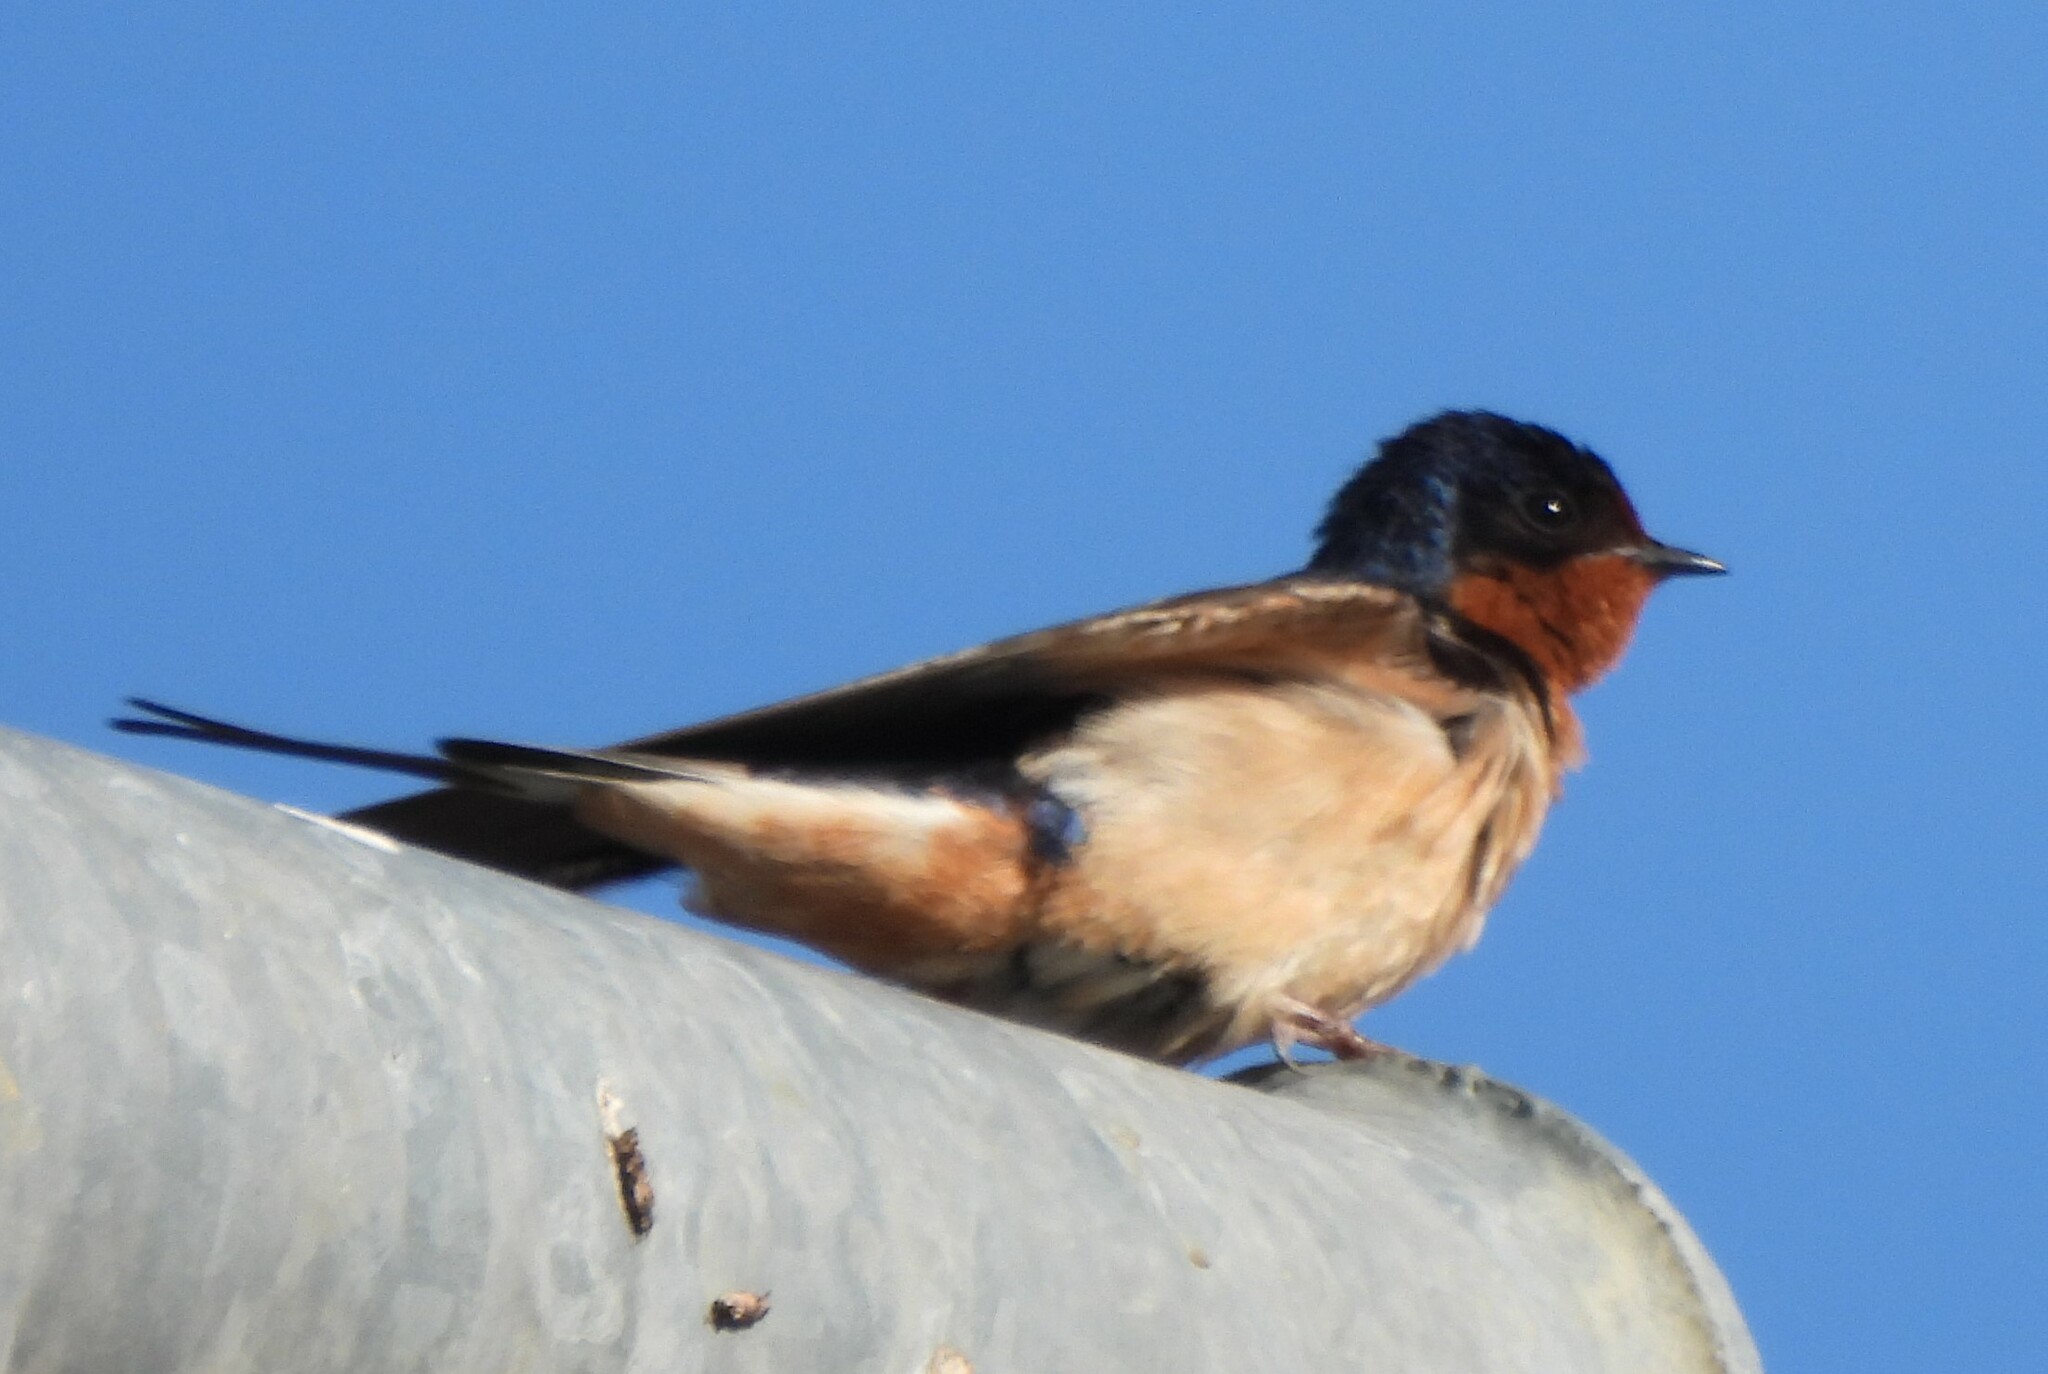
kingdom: Animalia
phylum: Chordata
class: Aves
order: Passeriformes
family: Hirundinidae
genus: Hirundo
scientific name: Hirundo rustica
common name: Barn swallow
